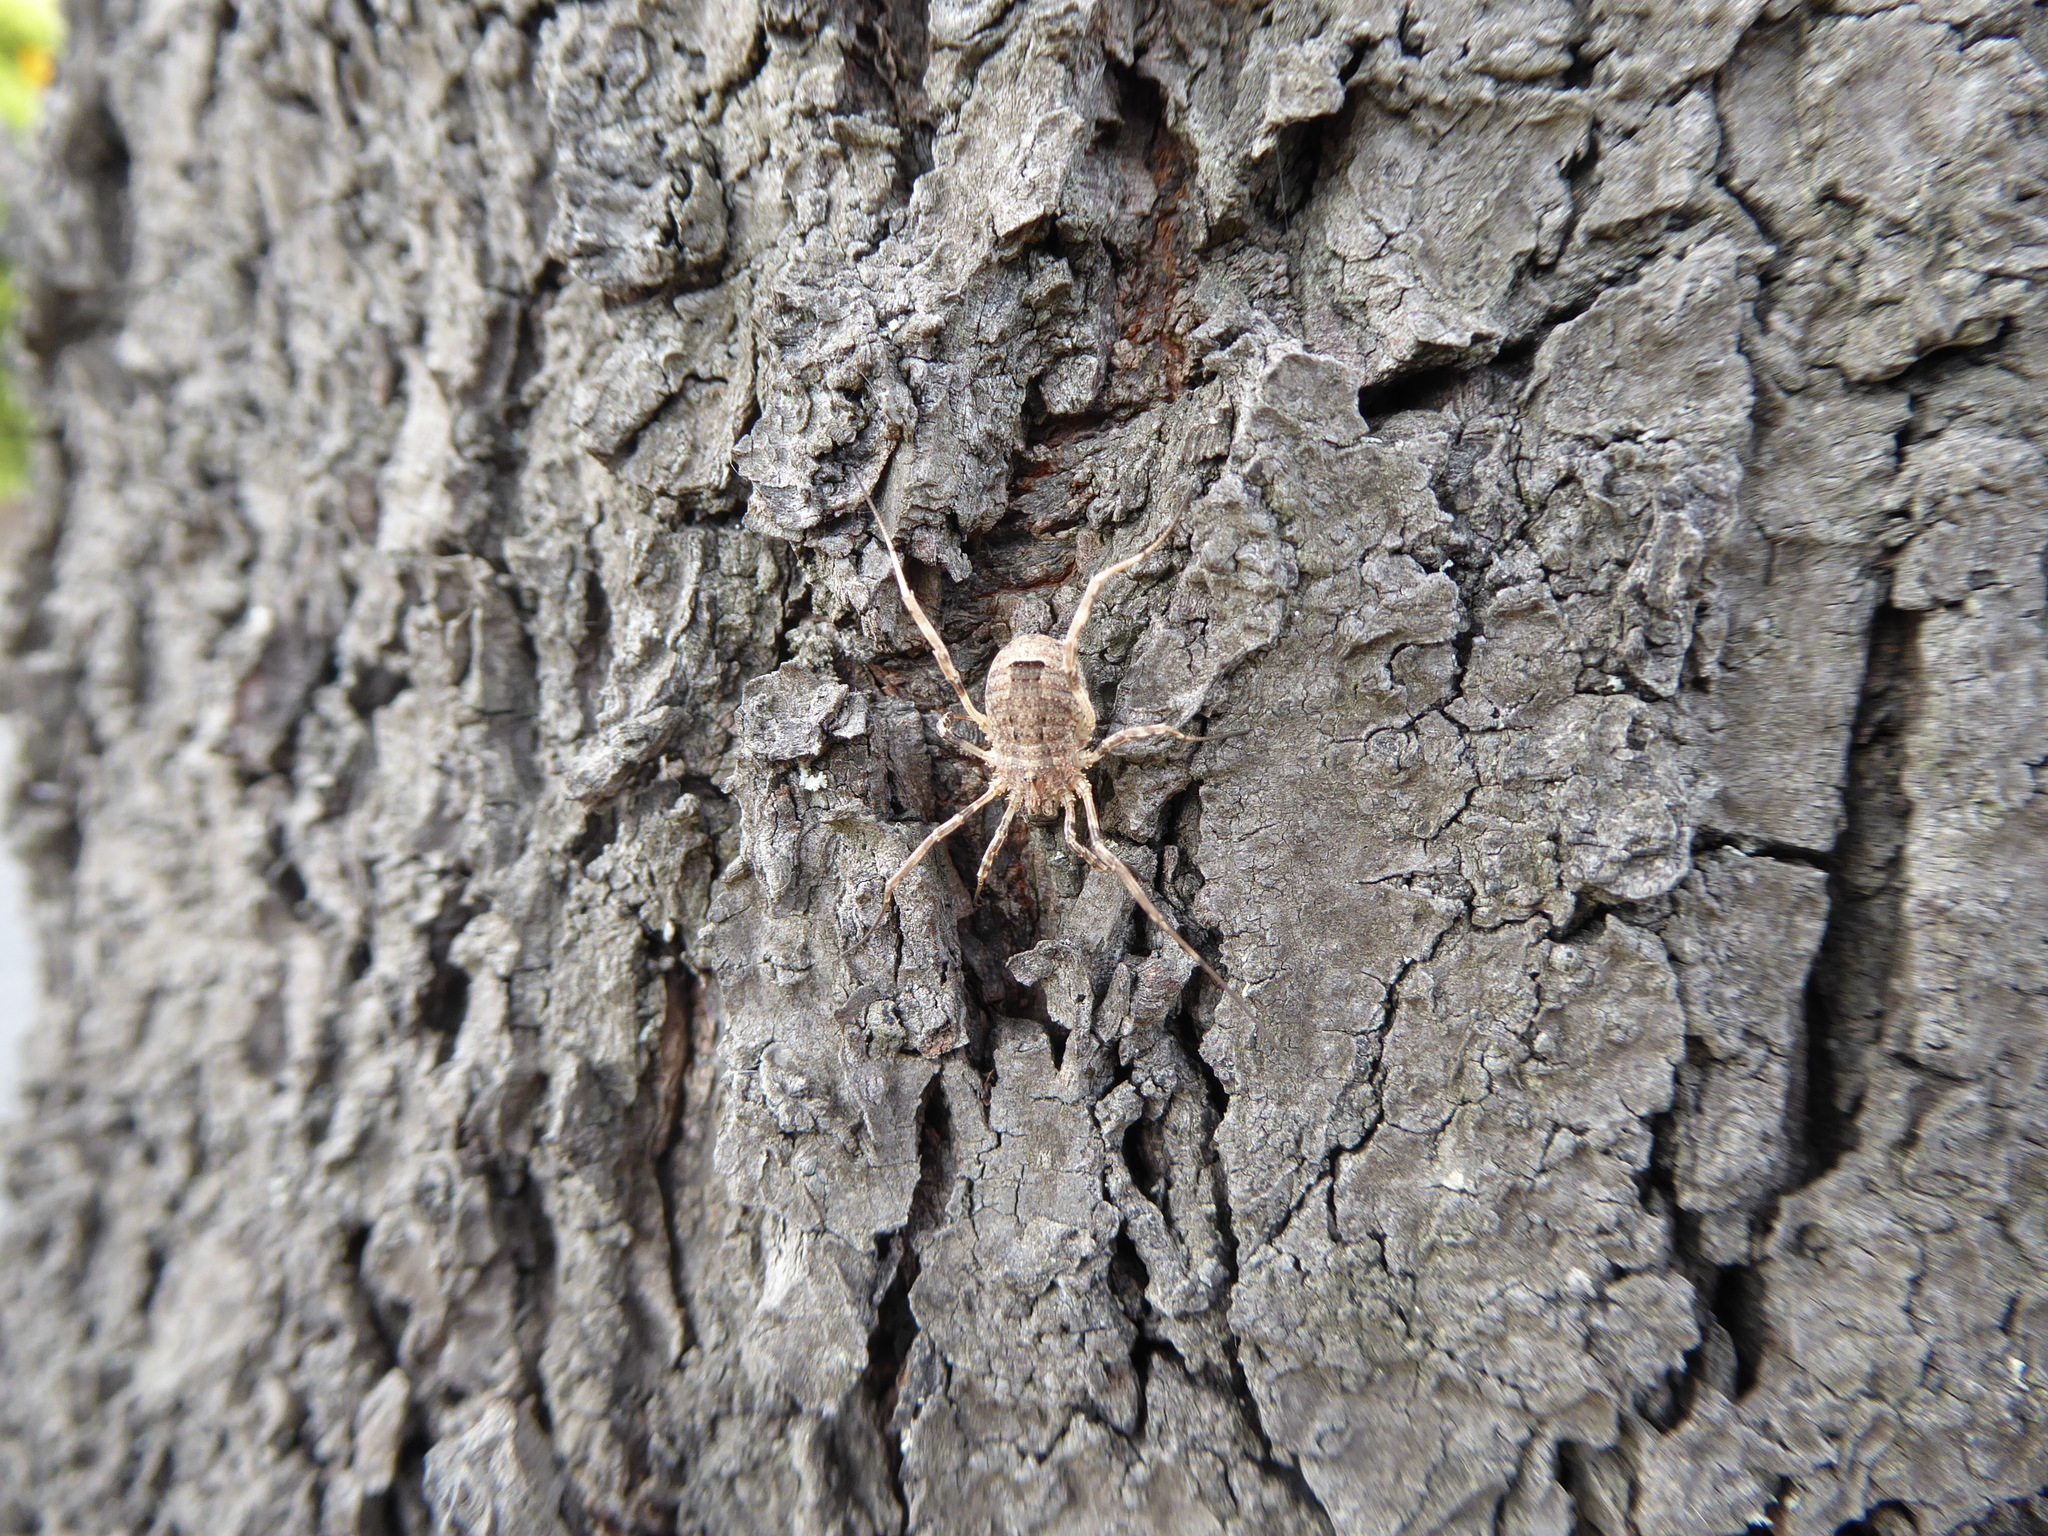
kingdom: Animalia
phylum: Arthropoda
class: Arachnida
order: Opiliones
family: Phalangiidae
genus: Odiellus
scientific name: Odiellus spinosus
